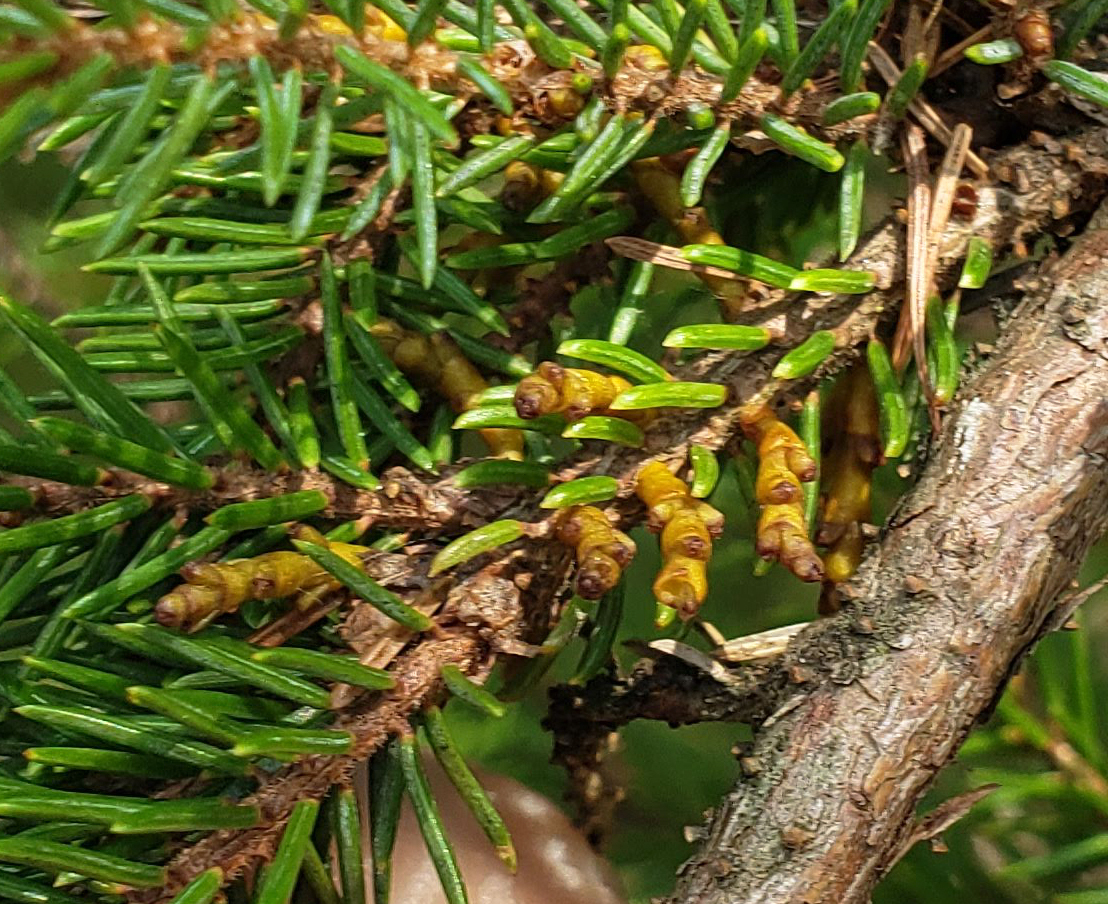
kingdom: Plantae
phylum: Tracheophyta
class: Magnoliopsida
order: Santalales
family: Viscaceae
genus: Arceuthobium
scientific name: Arceuthobium pusillum
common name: Dwarf-mistletoe
